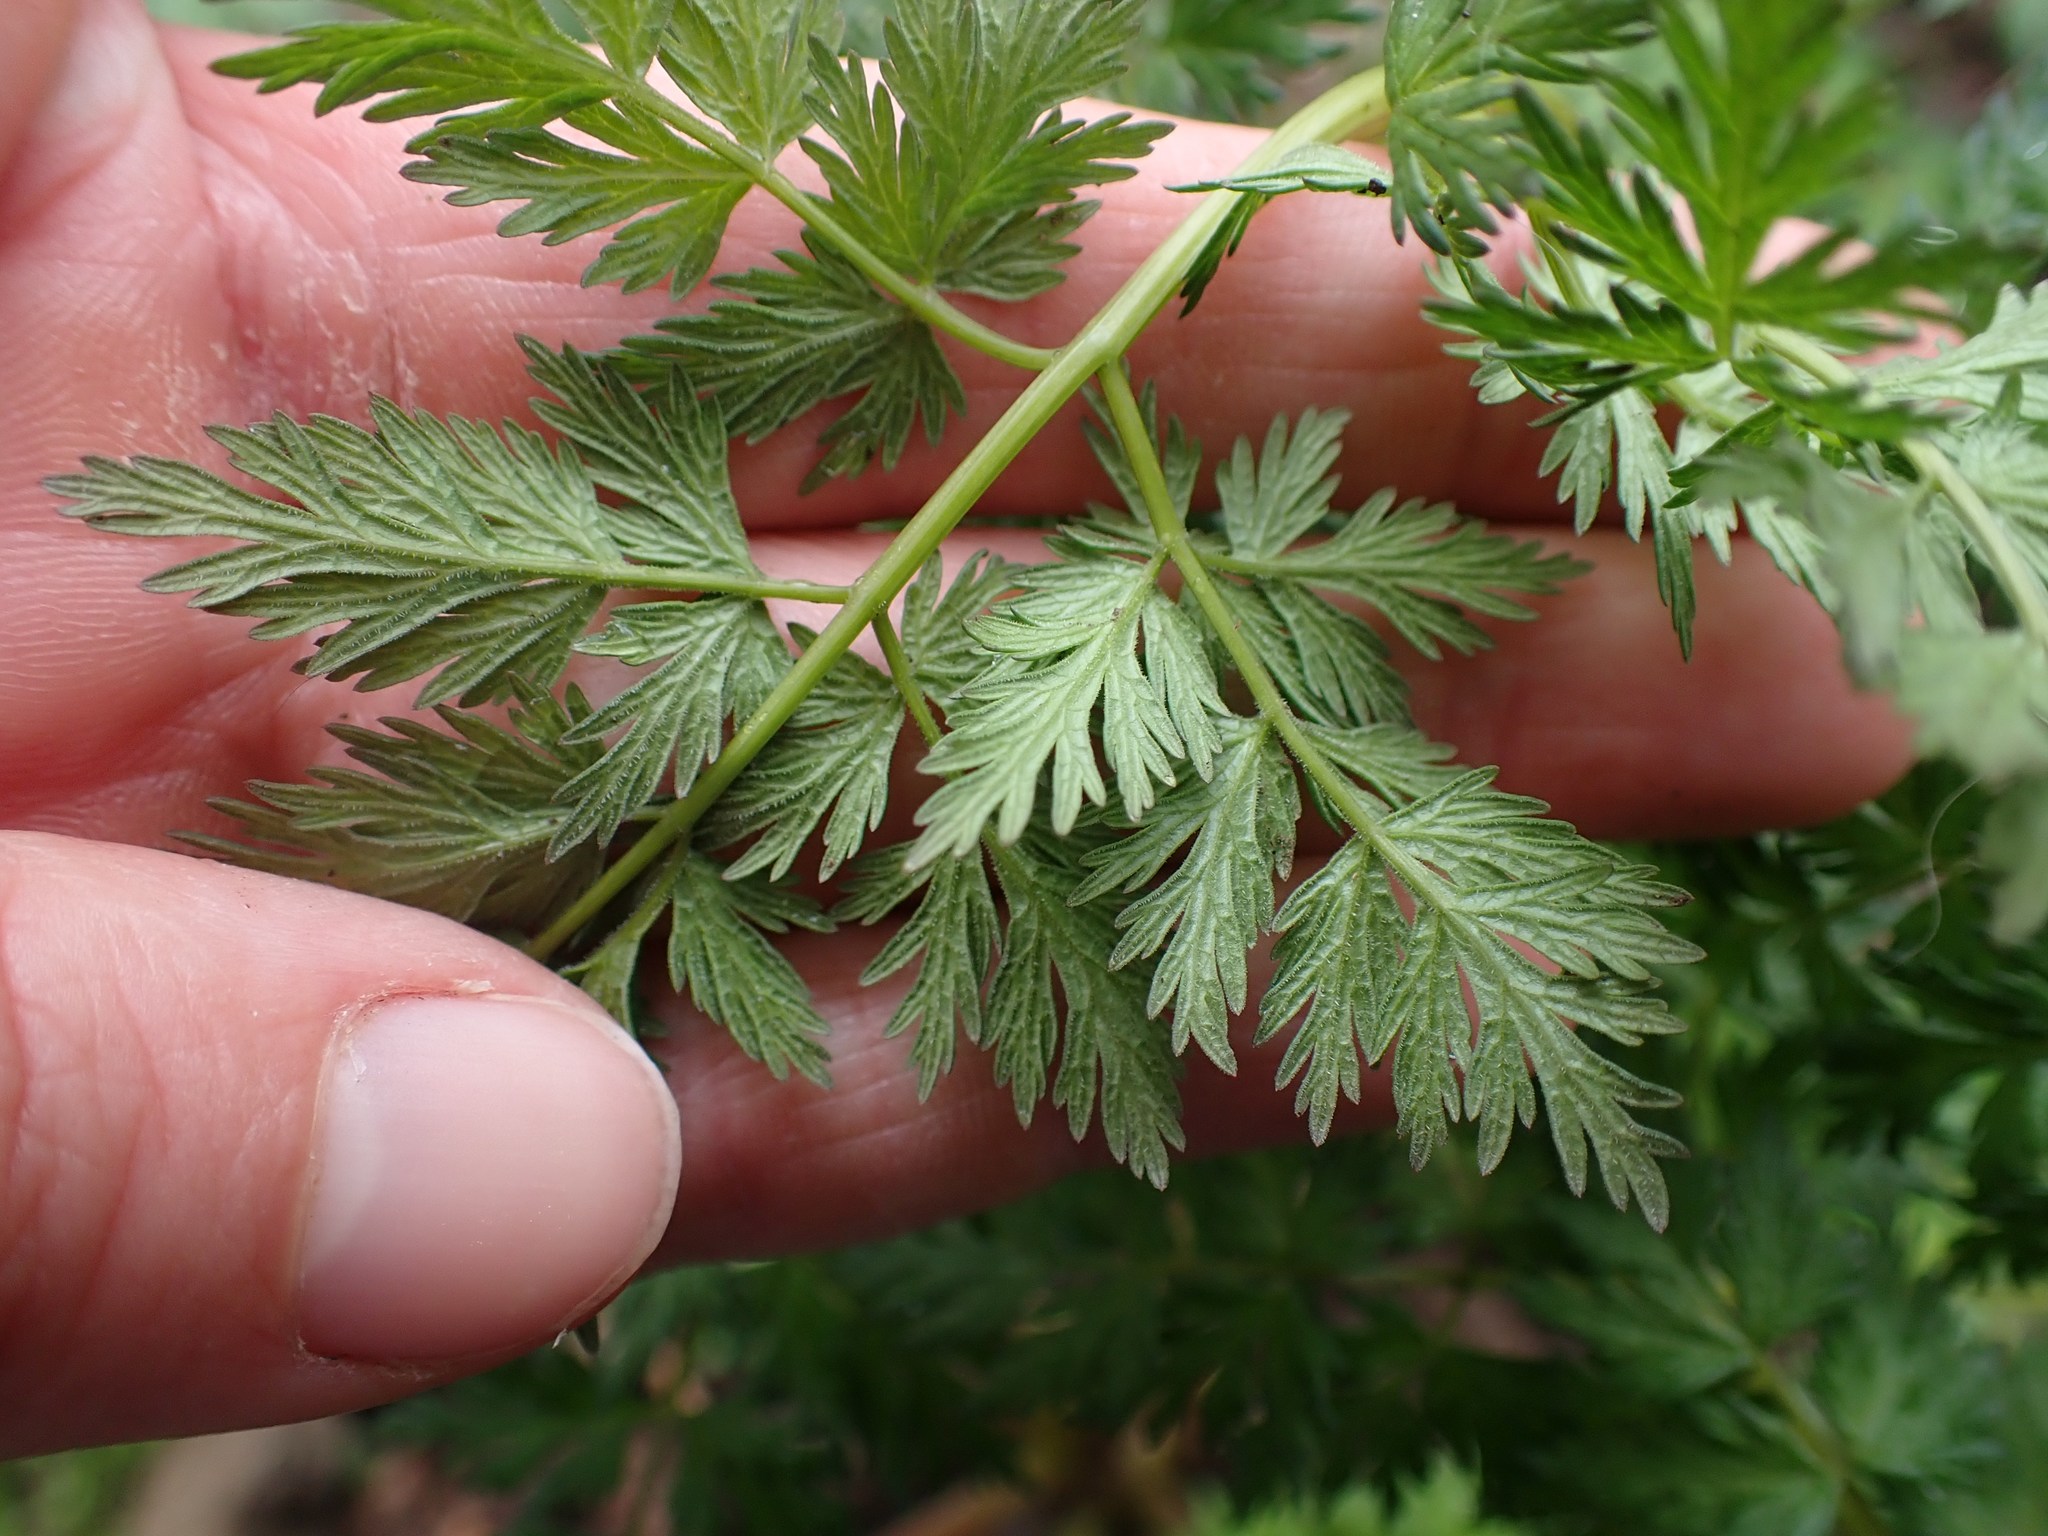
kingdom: Plantae
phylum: Tracheophyta
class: Magnoliopsida
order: Apiales
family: Apiaceae
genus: Lomatium
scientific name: Lomatium dissectum
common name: Lomatium
